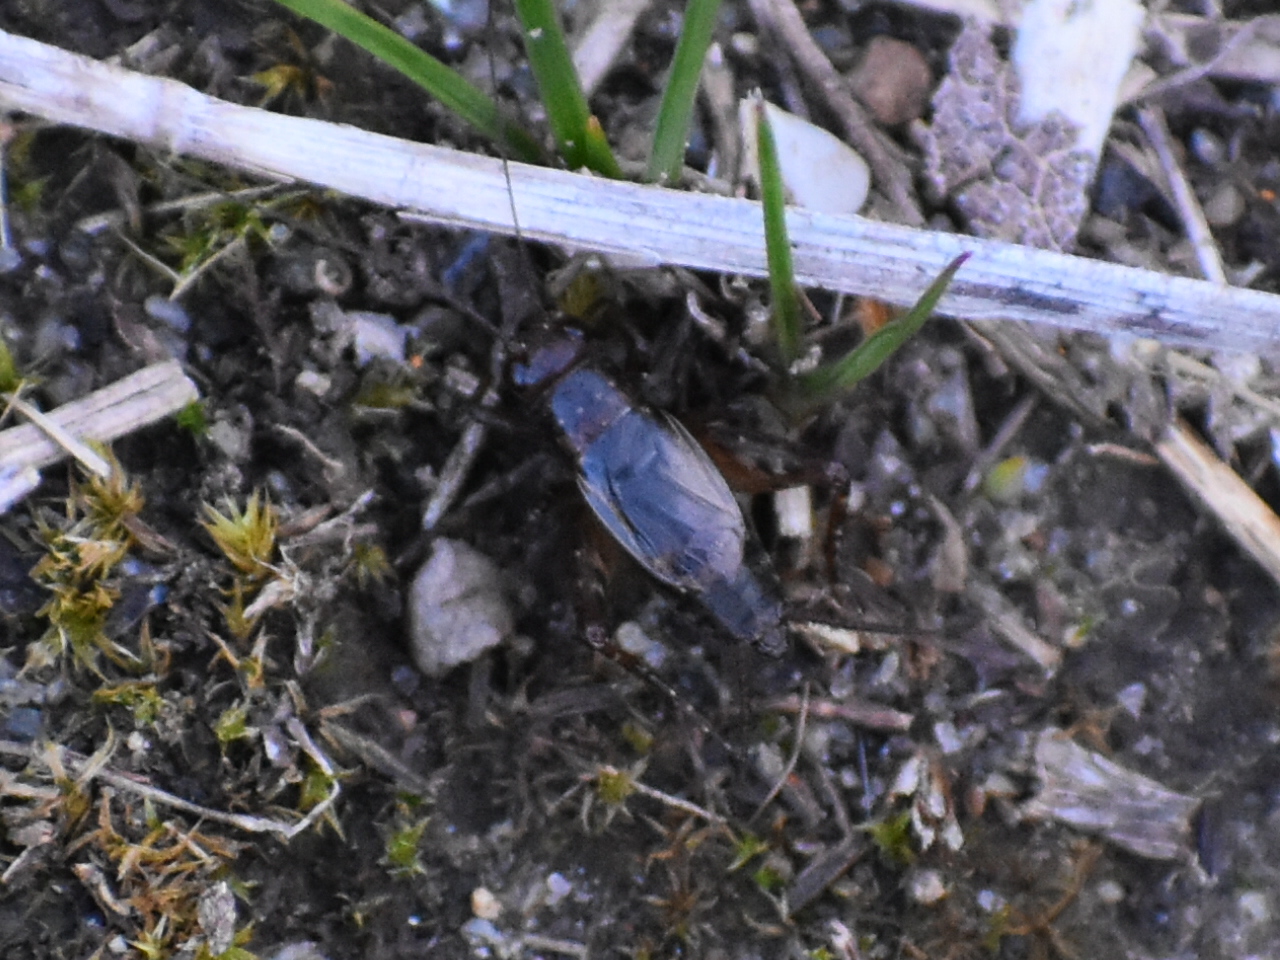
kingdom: Animalia
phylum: Arthropoda
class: Insecta
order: Orthoptera
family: Trigonidiidae
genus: Neonemobius
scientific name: Neonemobius cubensis
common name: Cuban ground cricket
